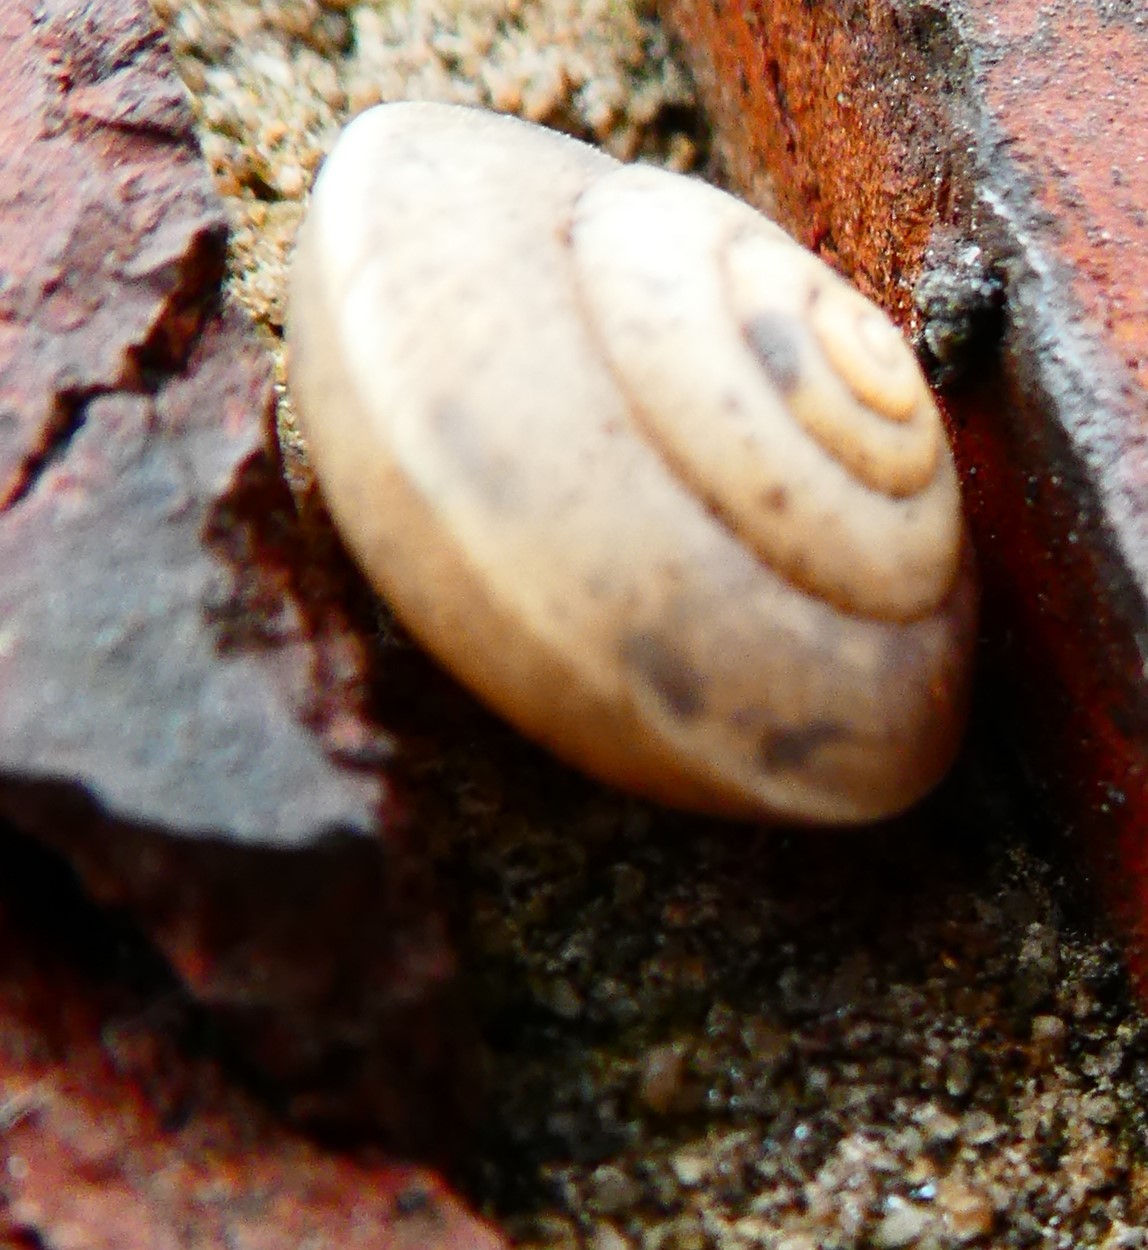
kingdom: Animalia
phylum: Mollusca
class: Gastropoda
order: Stylommatophora
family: Hygromiidae
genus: Hygromia
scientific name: Hygromia cinctella
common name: Girdled snail
